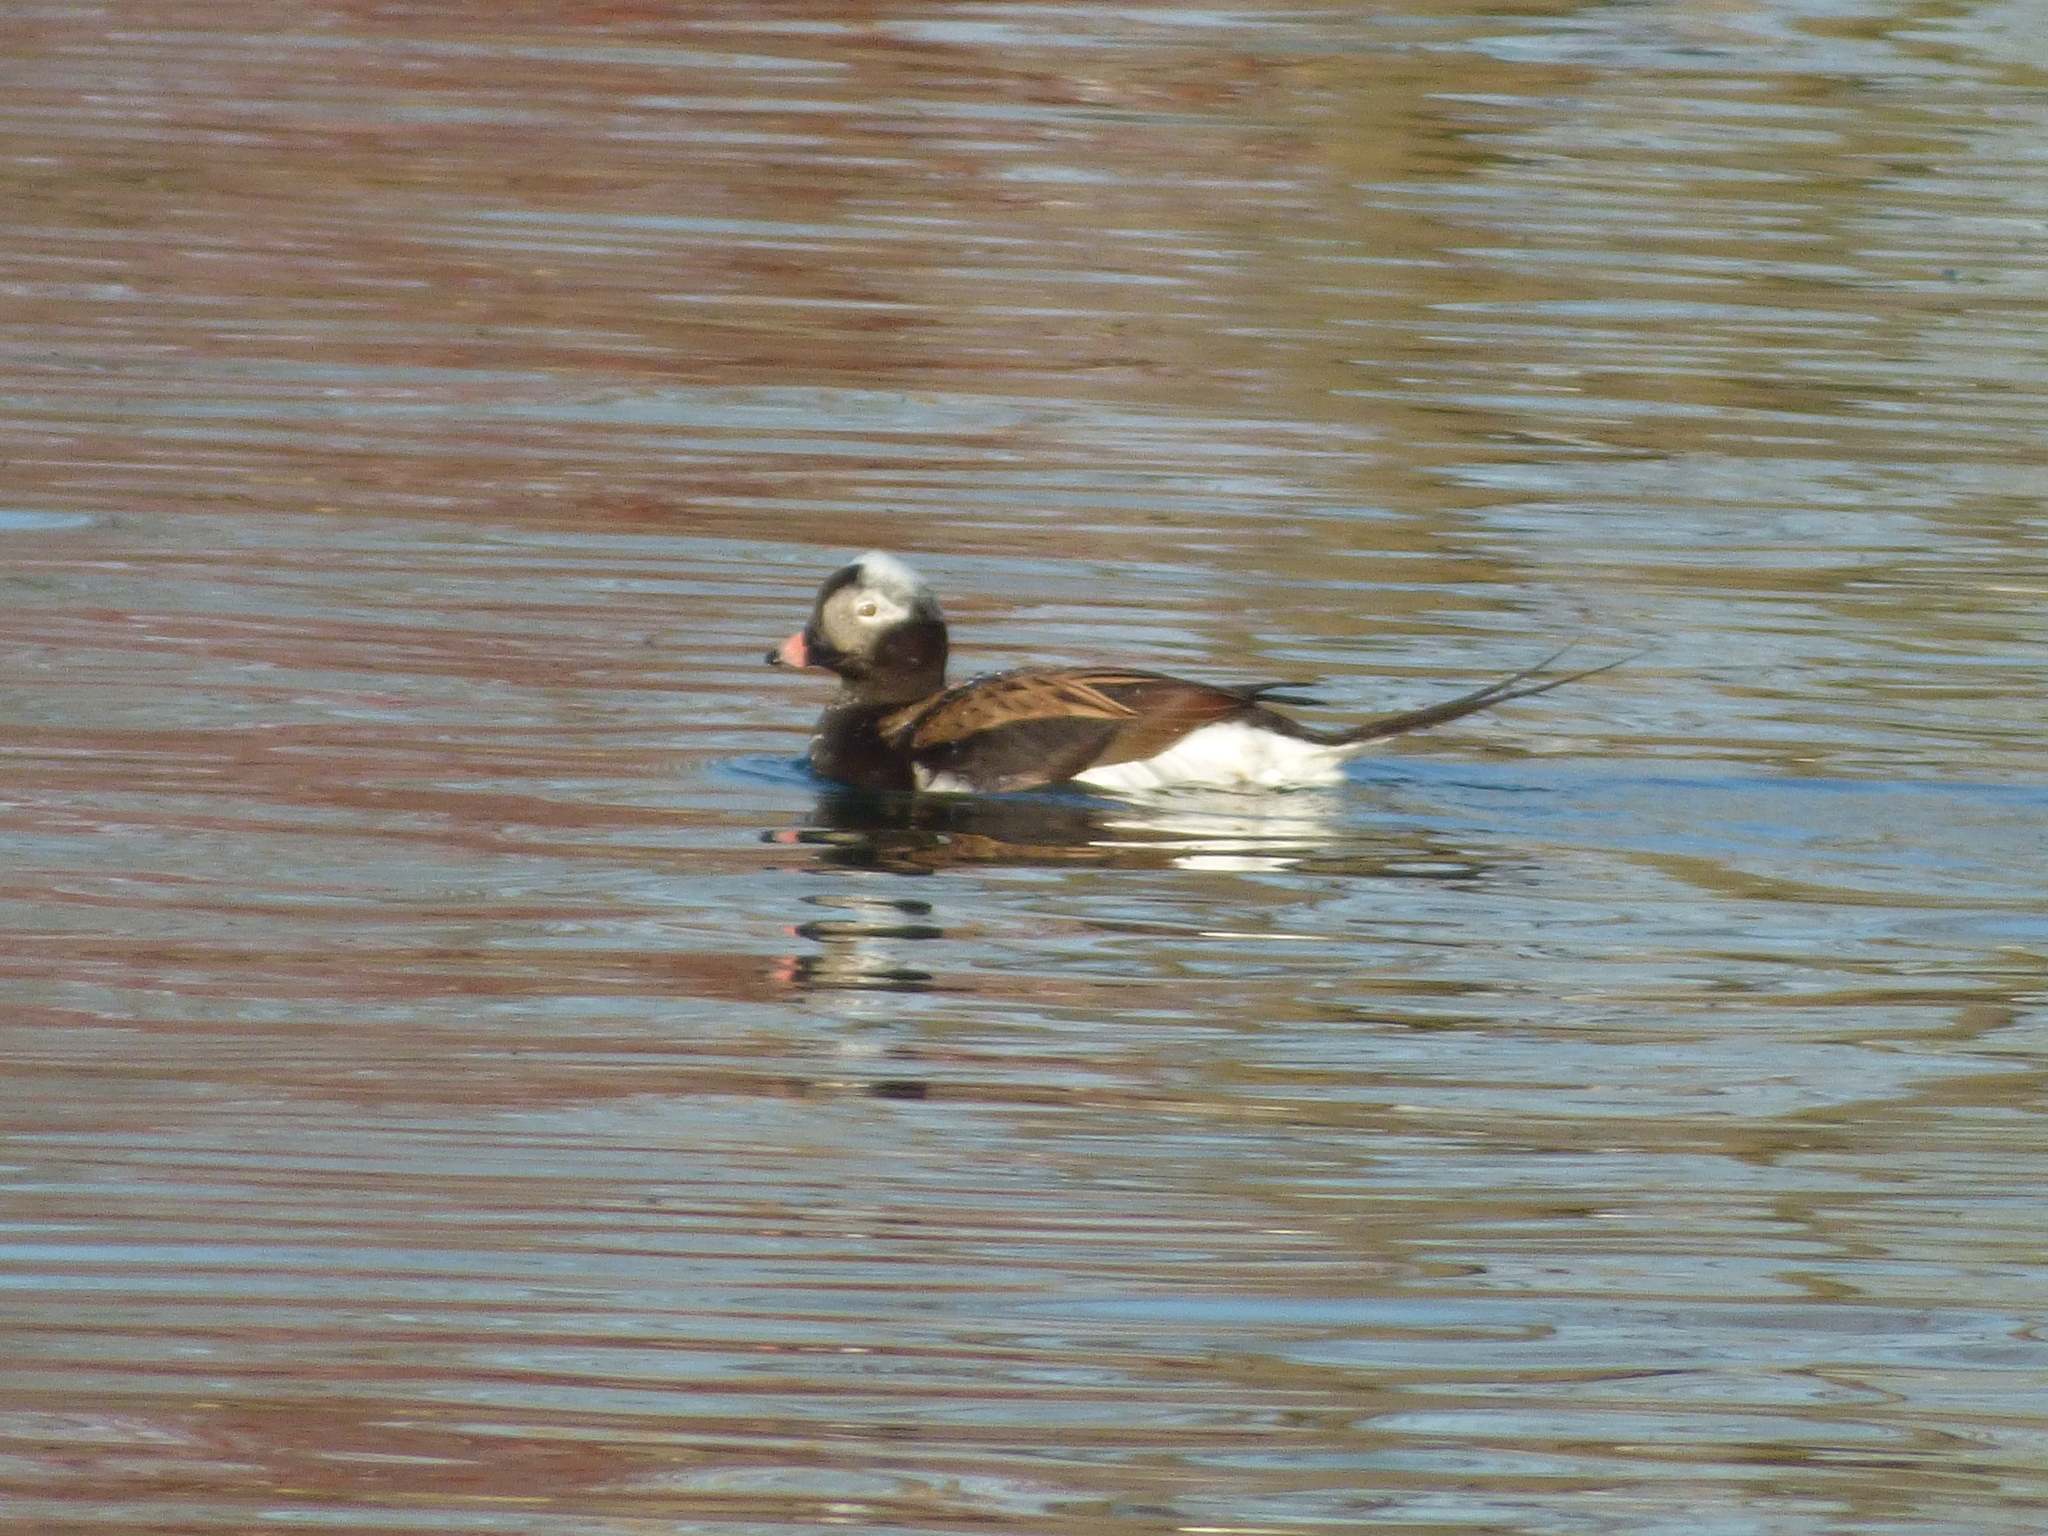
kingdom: Animalia
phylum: Chordata
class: Aves
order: Anseriformes
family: Anatidae
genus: Clangula
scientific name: Clangula hyemalis
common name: Long-tailed duck
